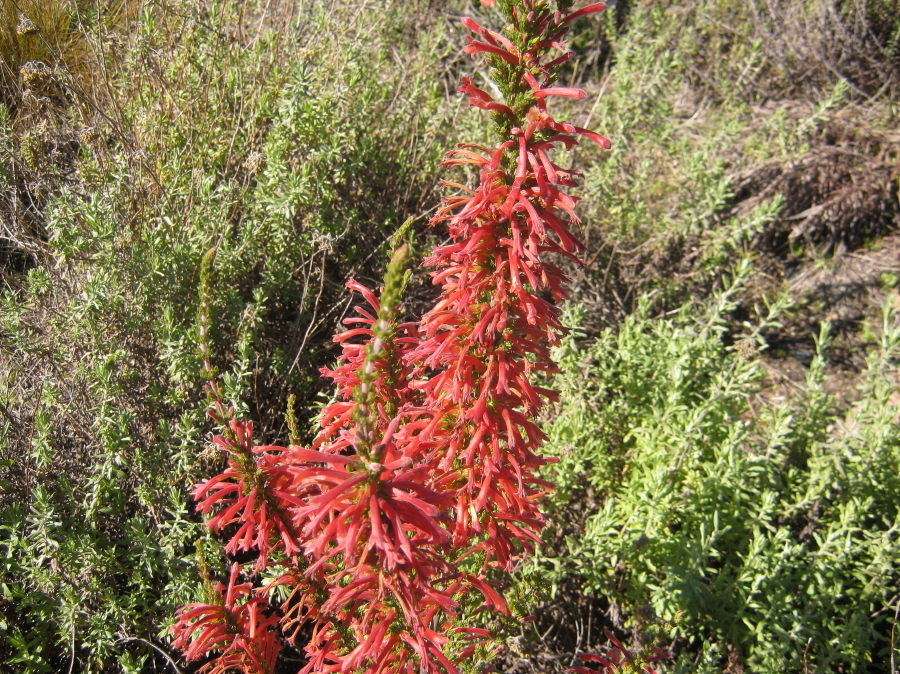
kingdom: Plantae
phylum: Tracheophyta
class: Magnoliopsida
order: Ericales
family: Ericaceae
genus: Erica
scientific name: Erica curviflora
